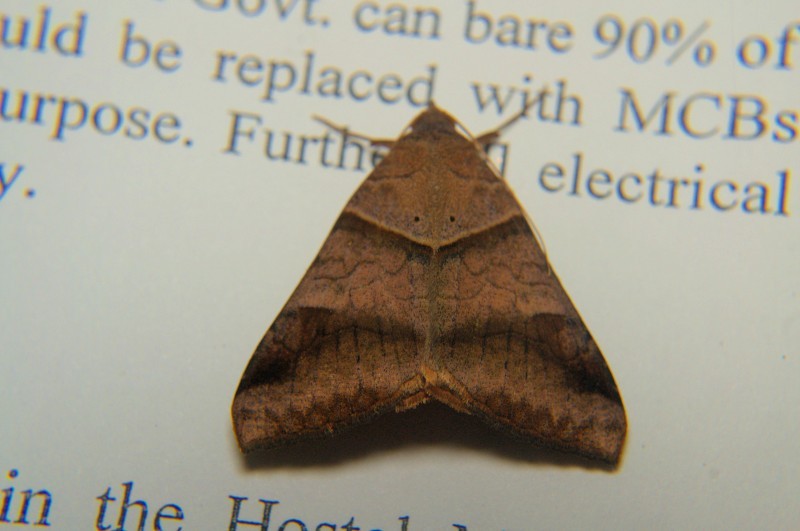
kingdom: Animalia
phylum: Arthropoda
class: Insecta
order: Lepidoptera
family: Erebidae
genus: Mocis
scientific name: Mocis undata
